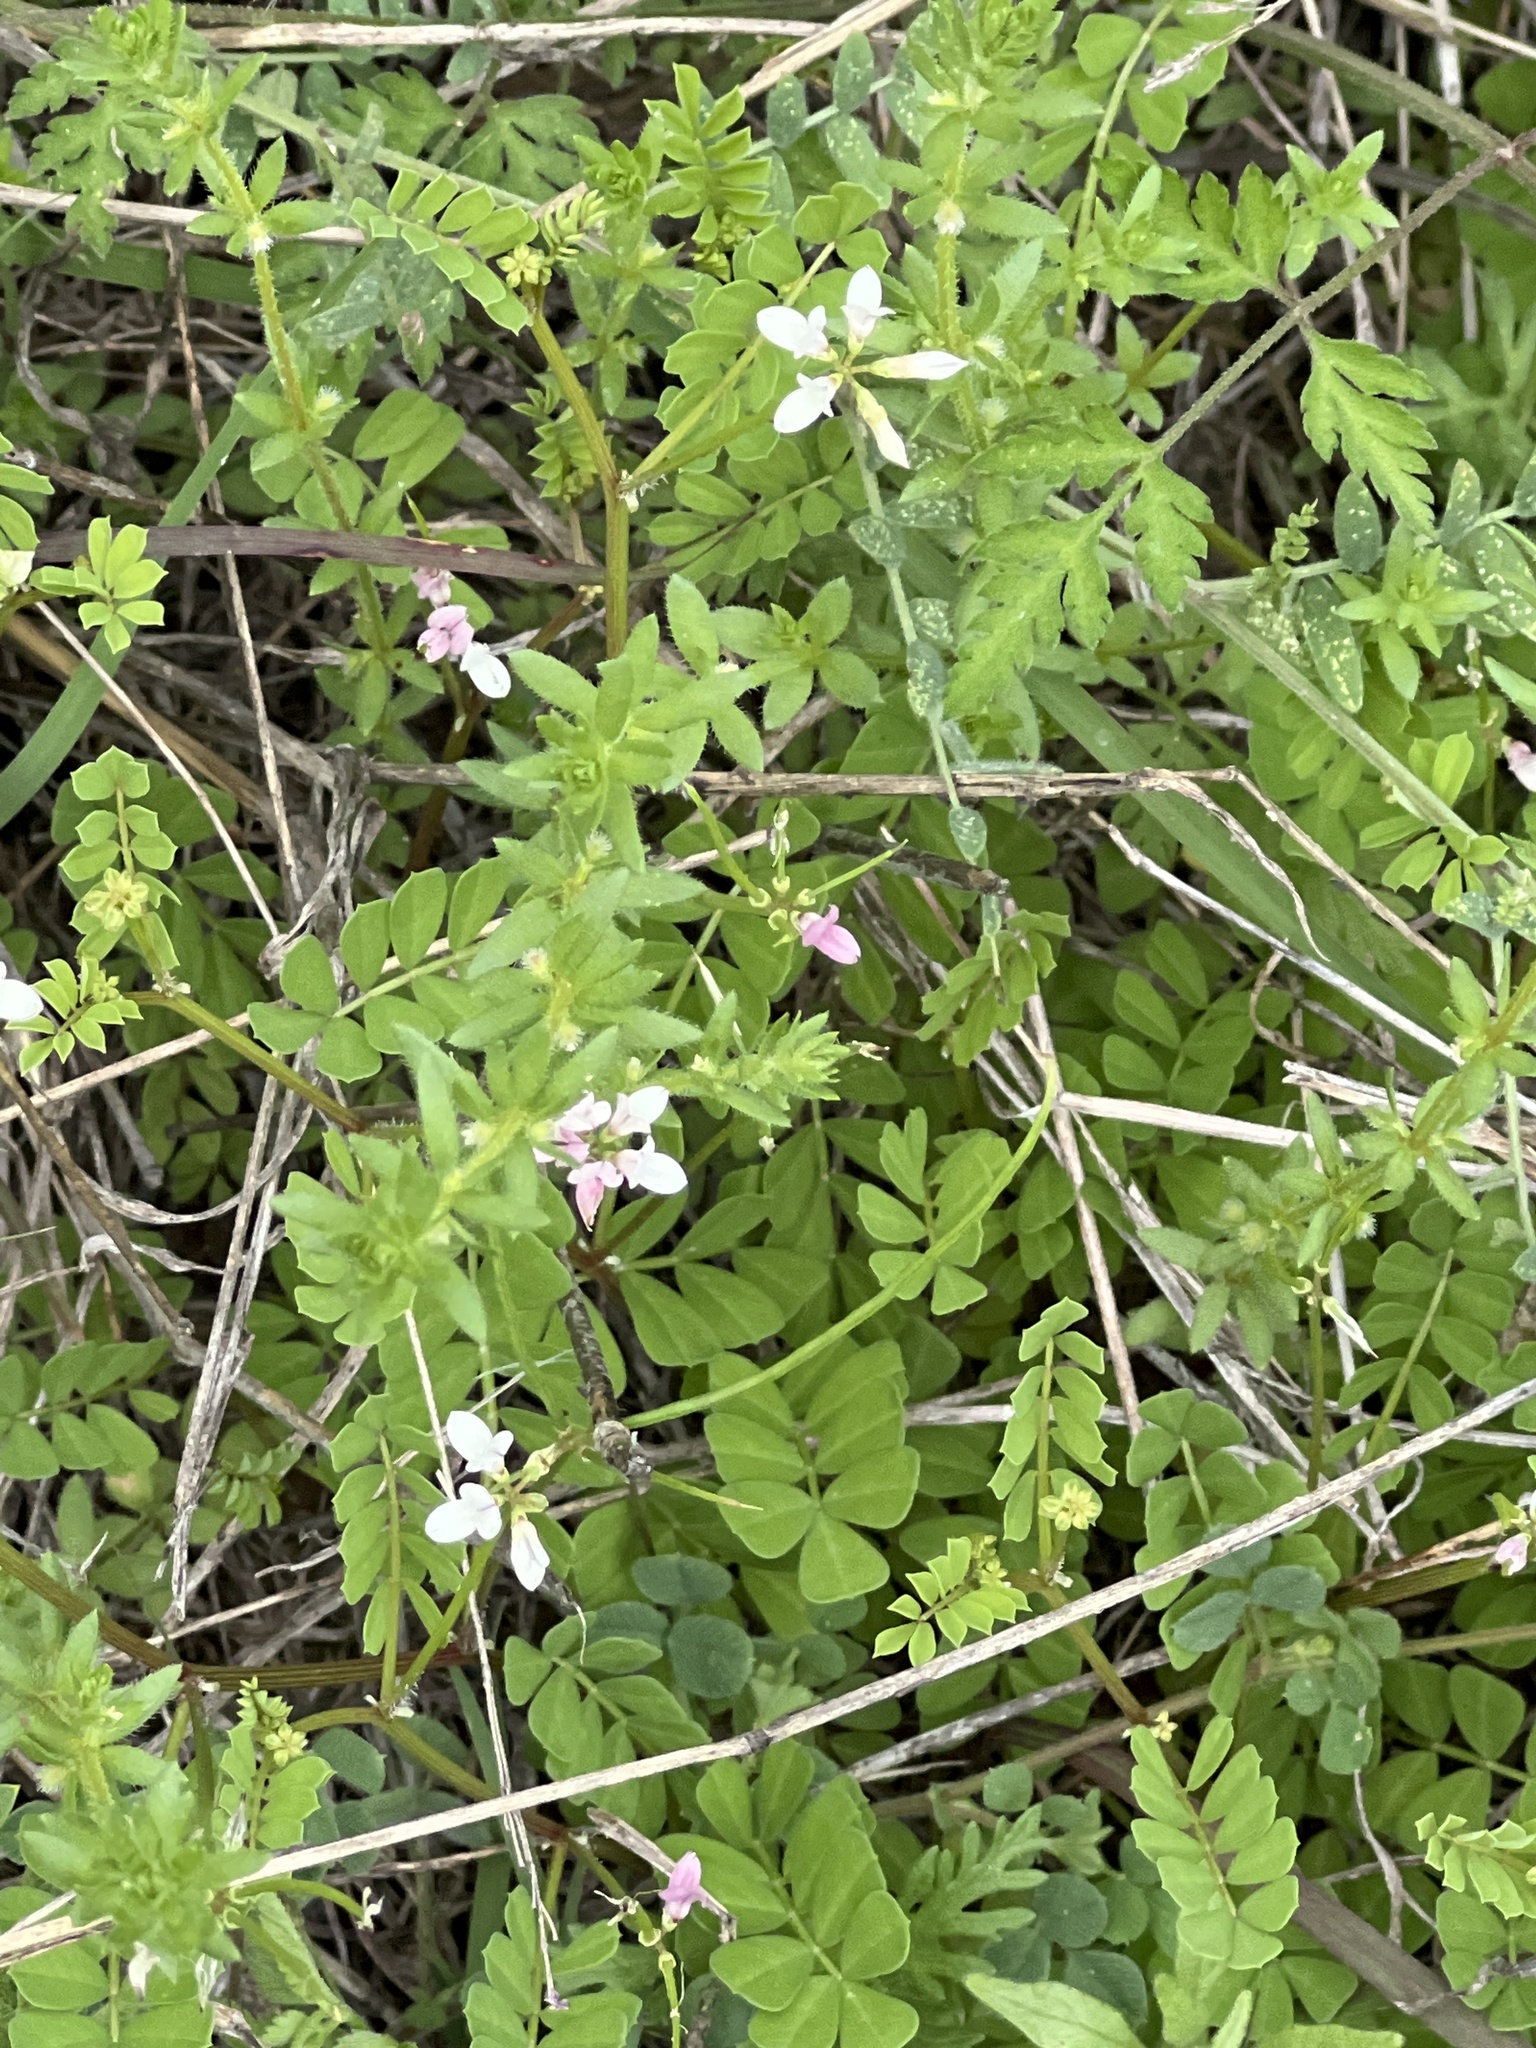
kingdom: Plantae
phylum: Tracheophyta
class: Magnoliopsida
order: Fabales
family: Fabaceae
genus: Coronilla
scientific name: Coronilla cretica
